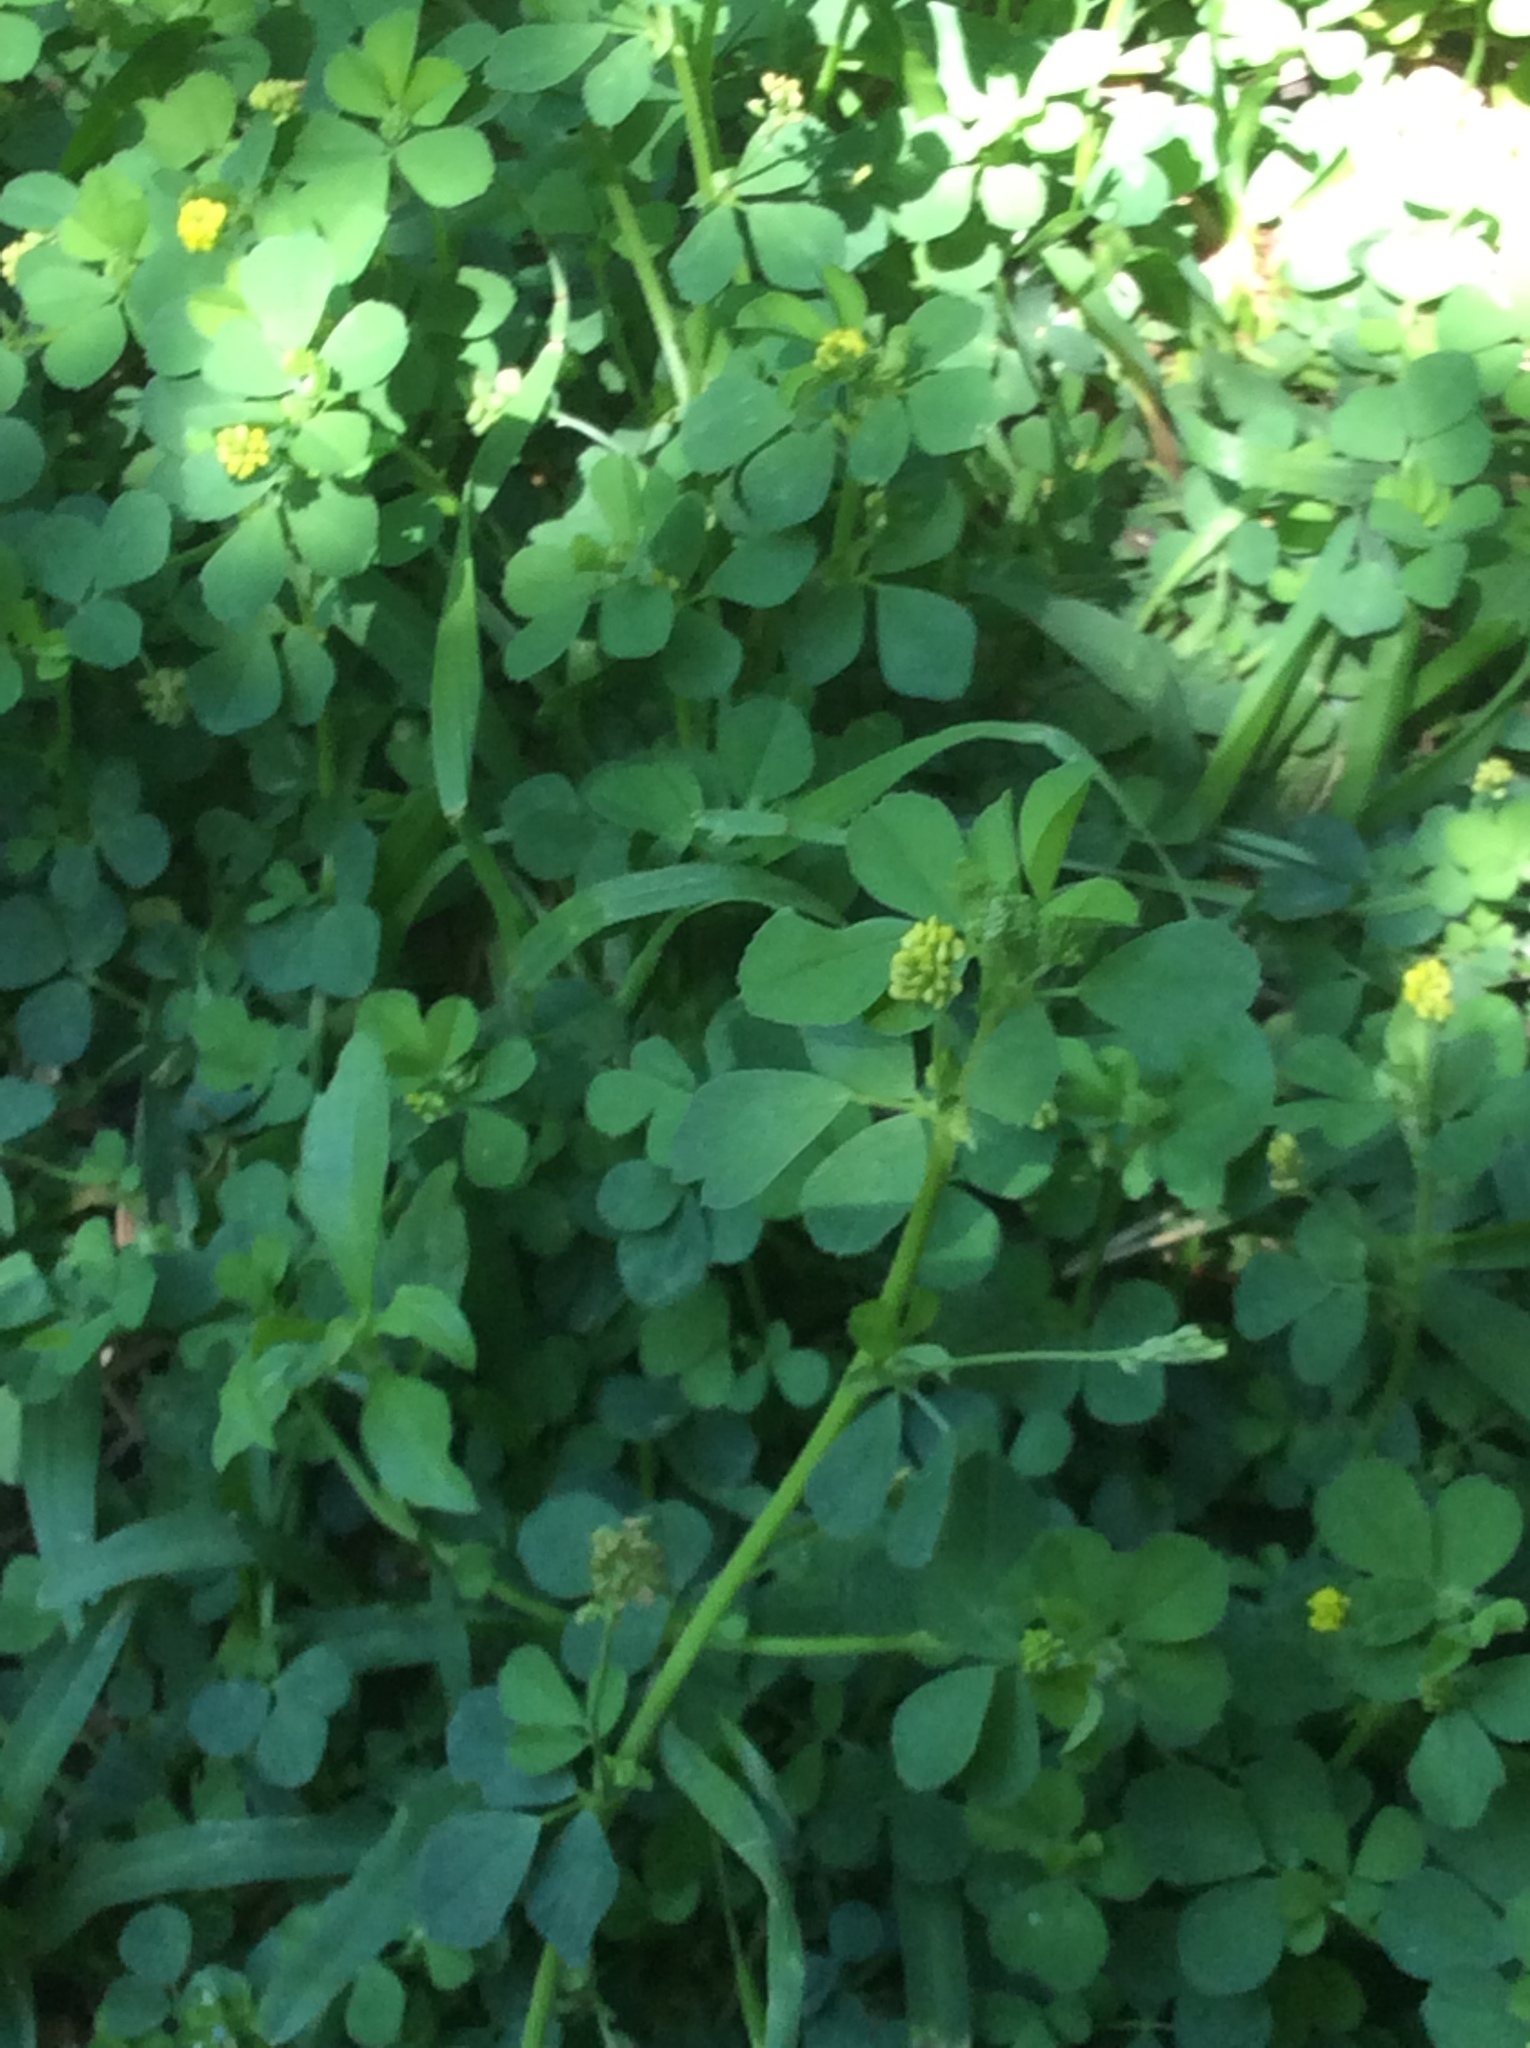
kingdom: Plantae
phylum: Tracheophyta
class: Magnoliopsida
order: Fabales
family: Fabaceae
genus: Medicago
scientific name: Medicago lupulina
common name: Black medick
